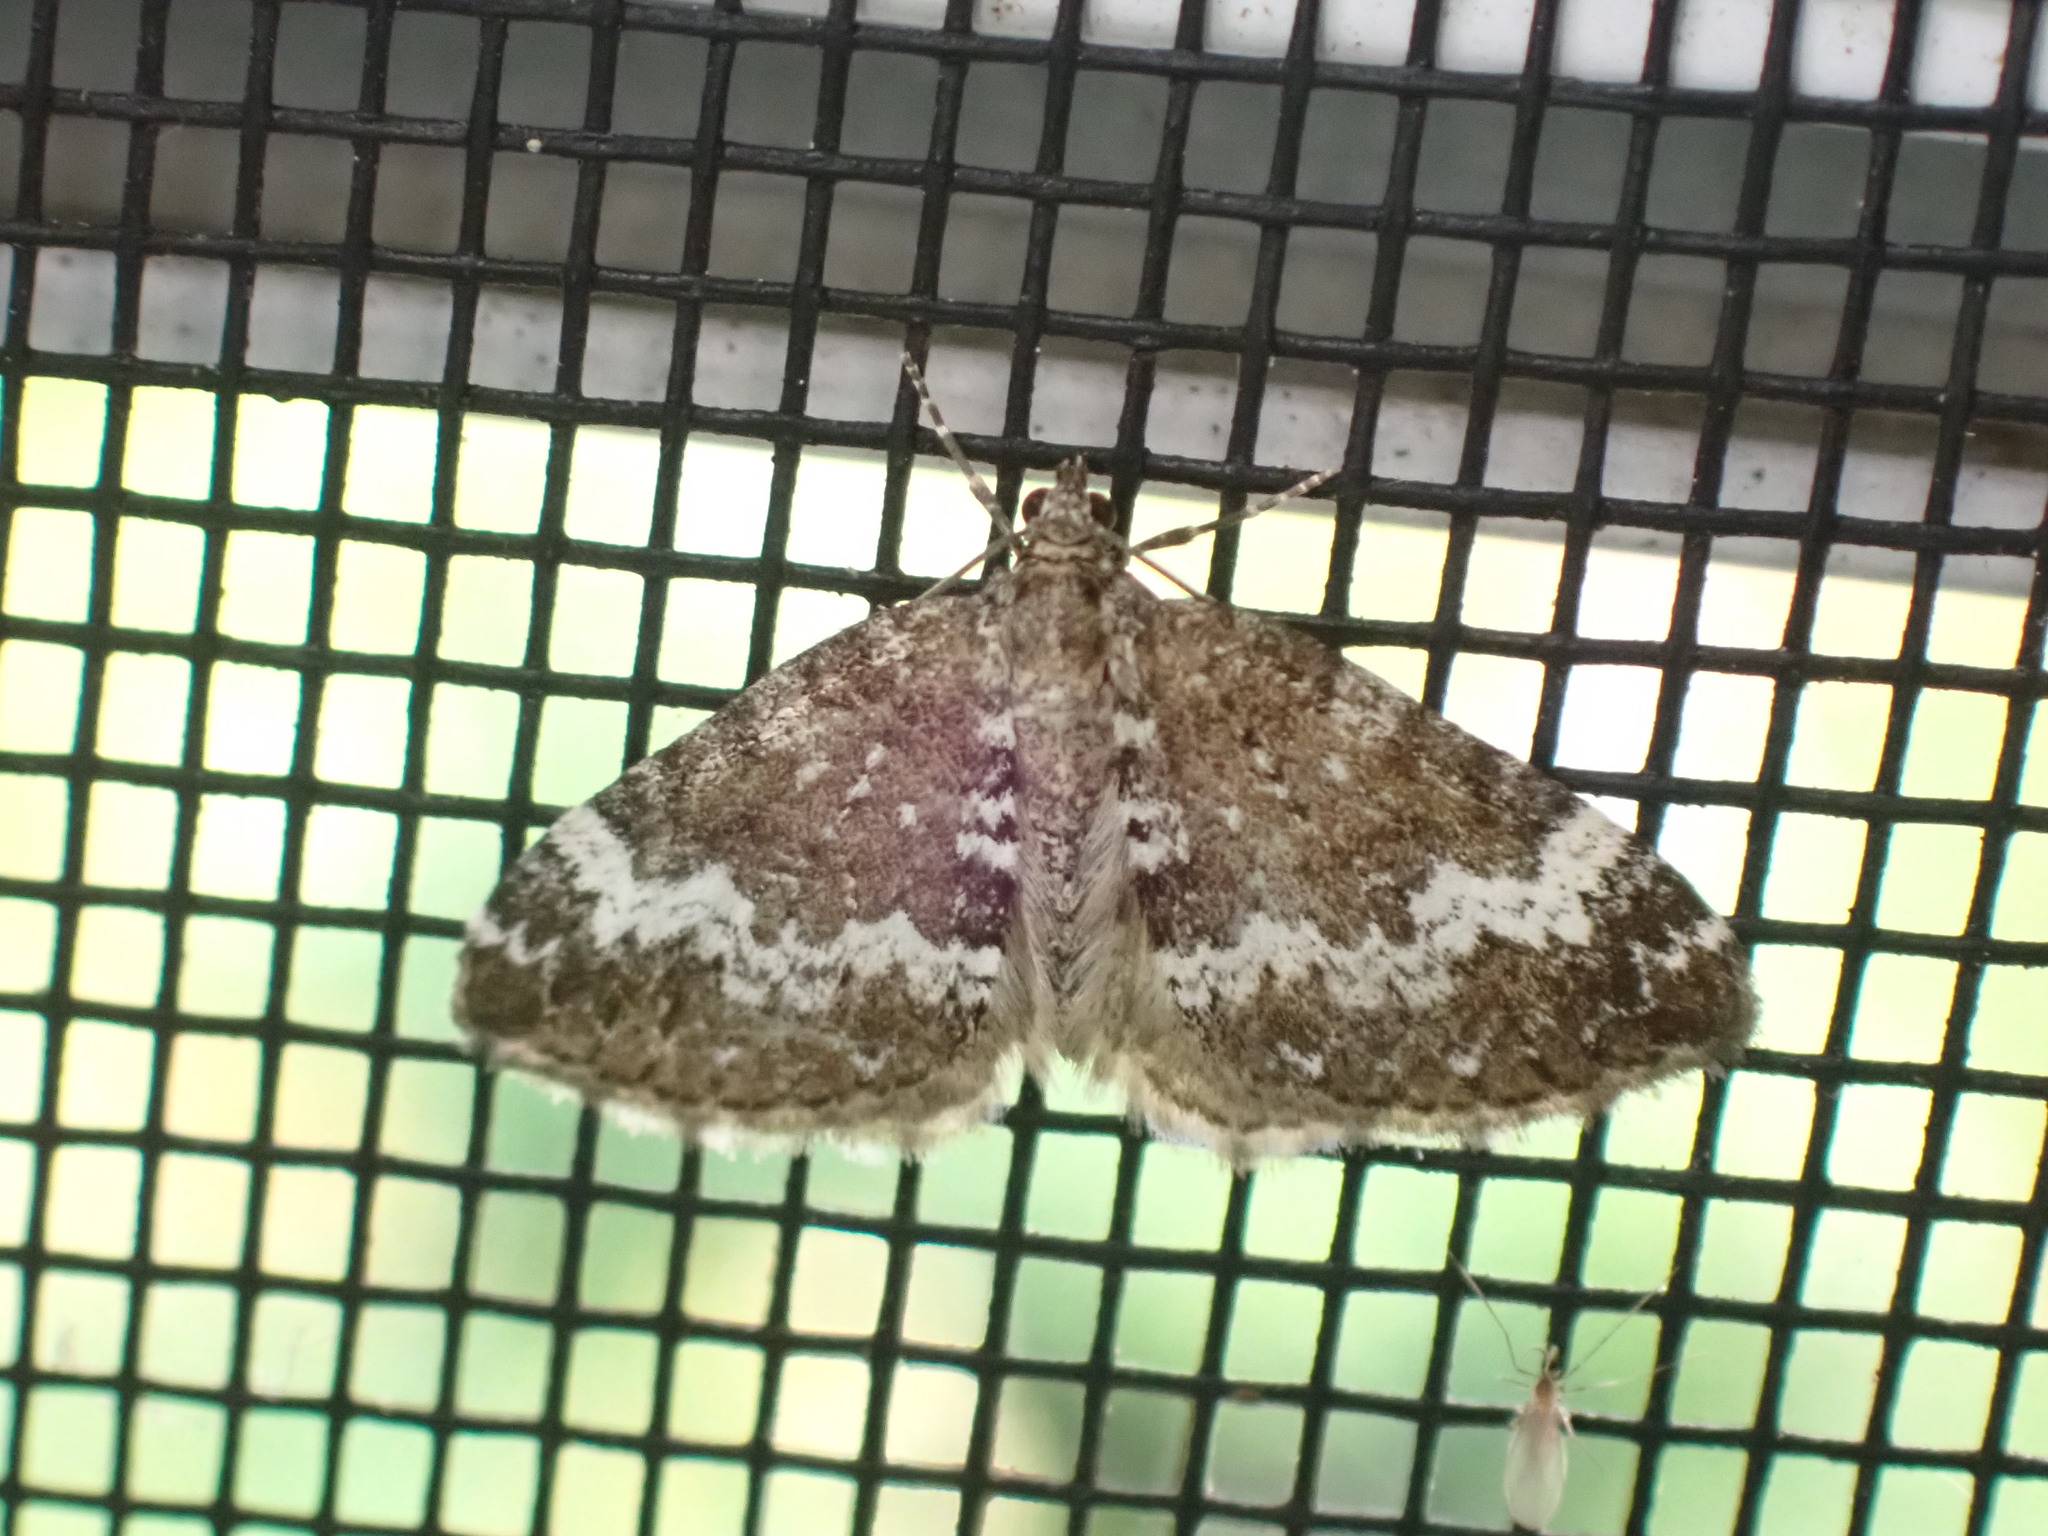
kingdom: Animalia
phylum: Arthropoda
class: Insecta
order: Lepidoptera
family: Geometridae
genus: Perizoma
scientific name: Perizoma alchemillata
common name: Small rivulet
